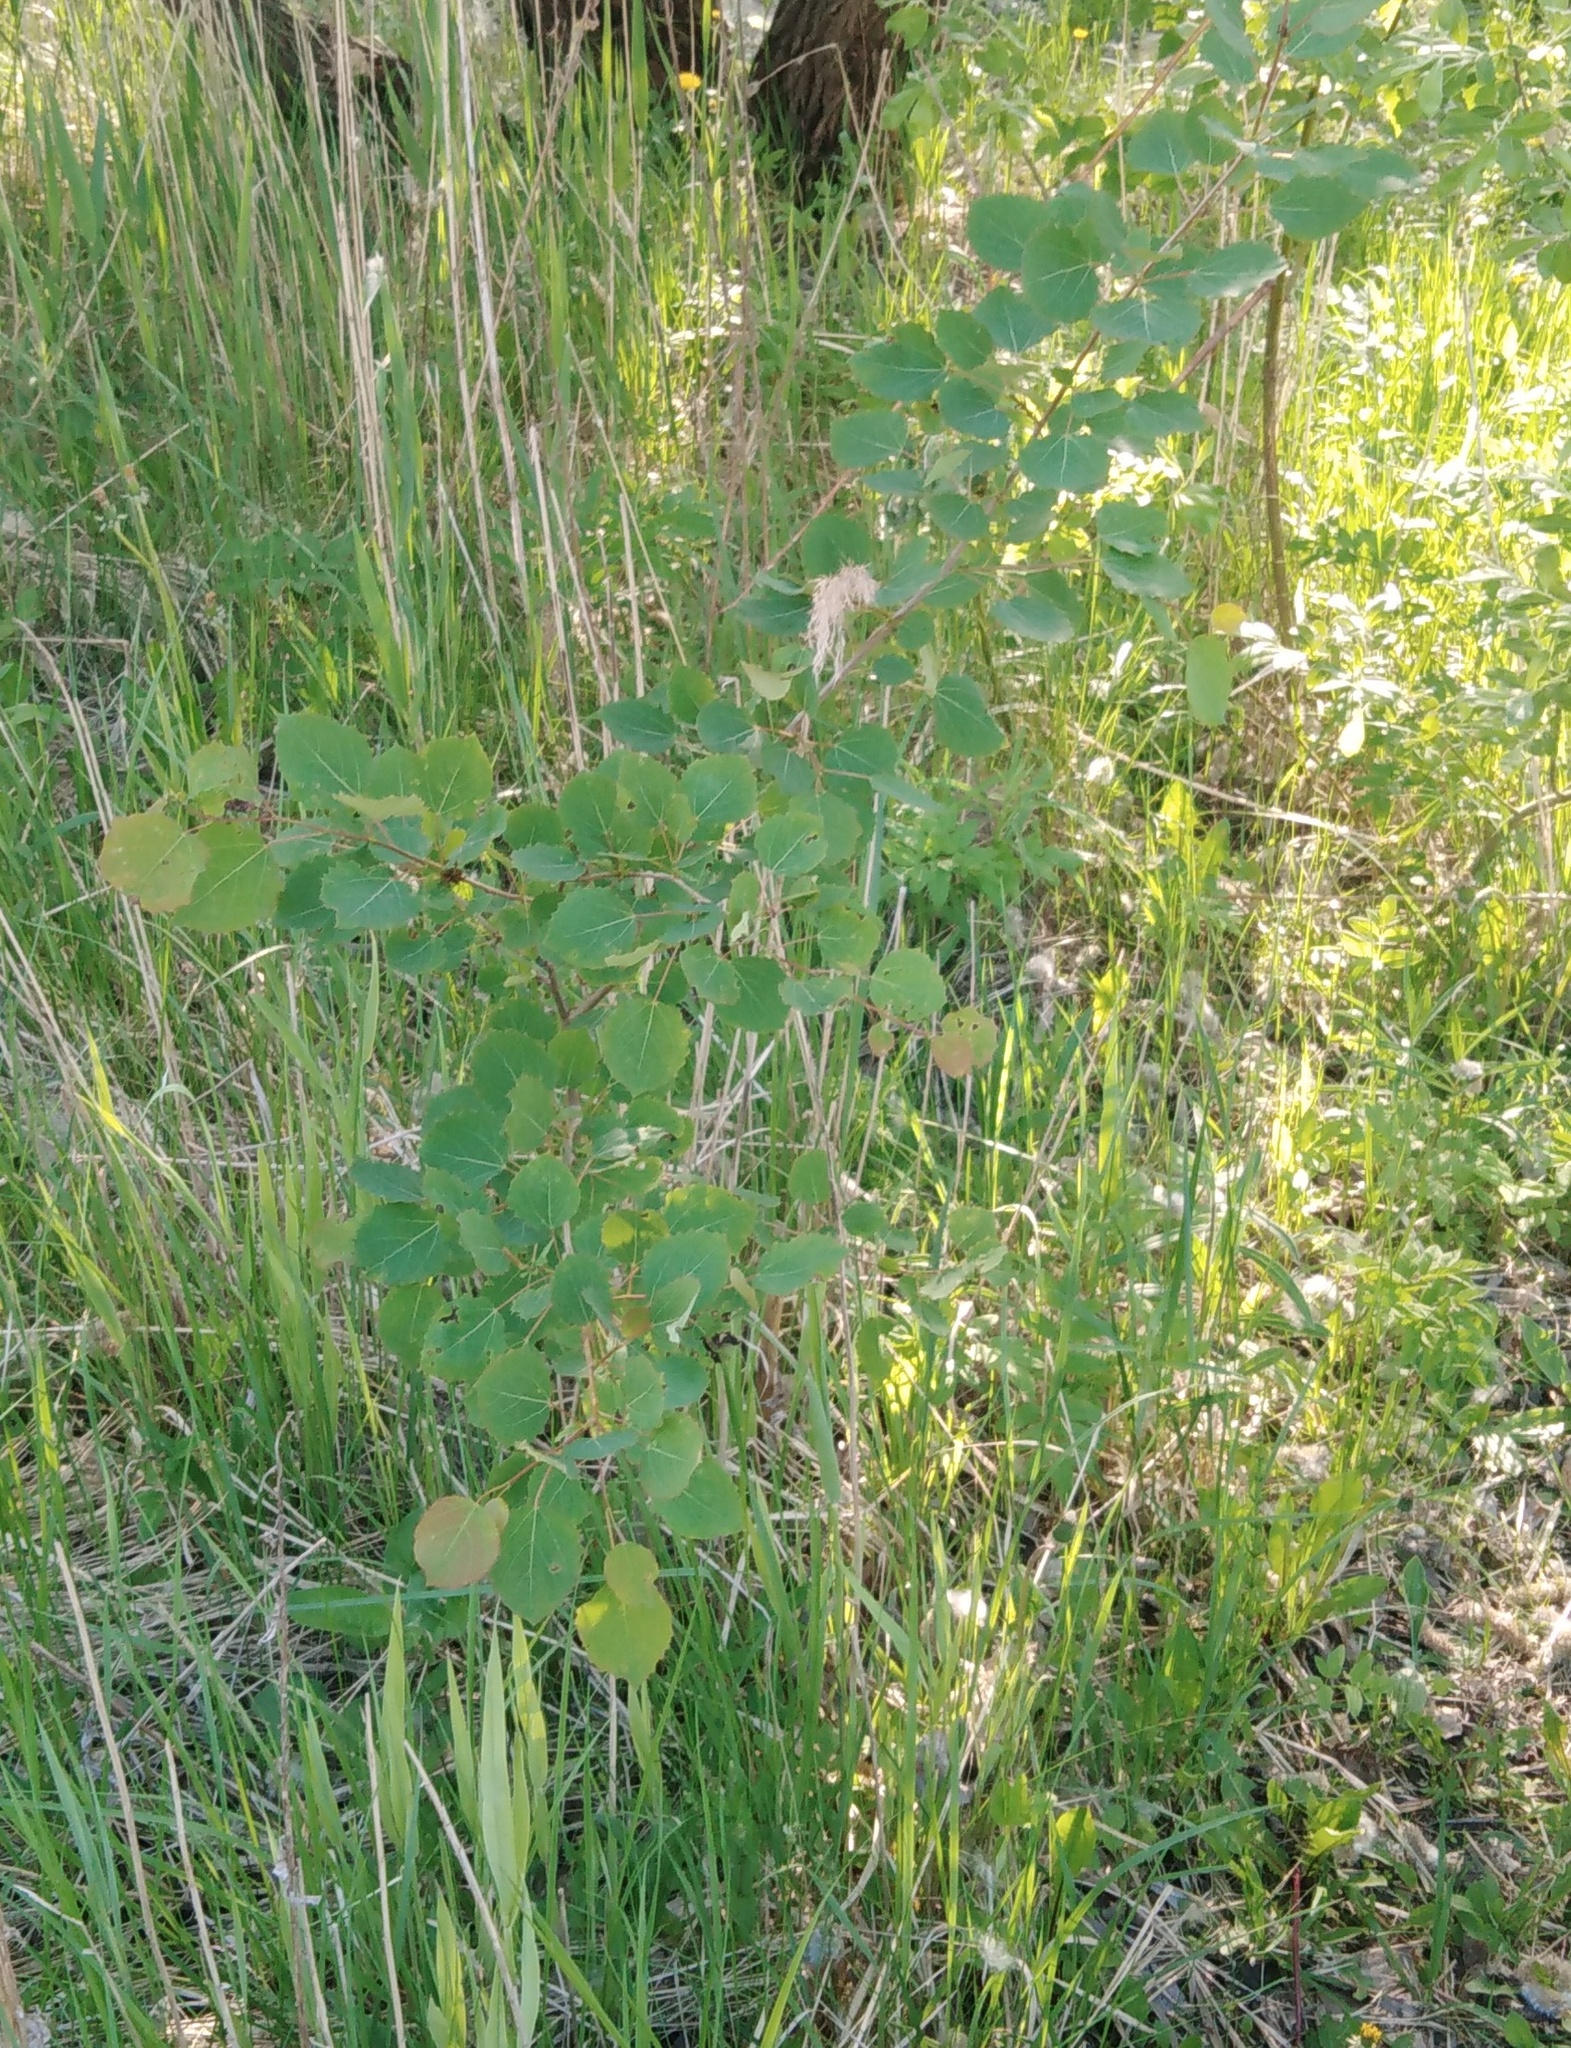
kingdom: Plantae
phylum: Tracheophyta
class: Magnoliopsida
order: Malpighiales
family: Salicaceae
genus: Populus
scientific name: Populus tremula
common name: European aspen
